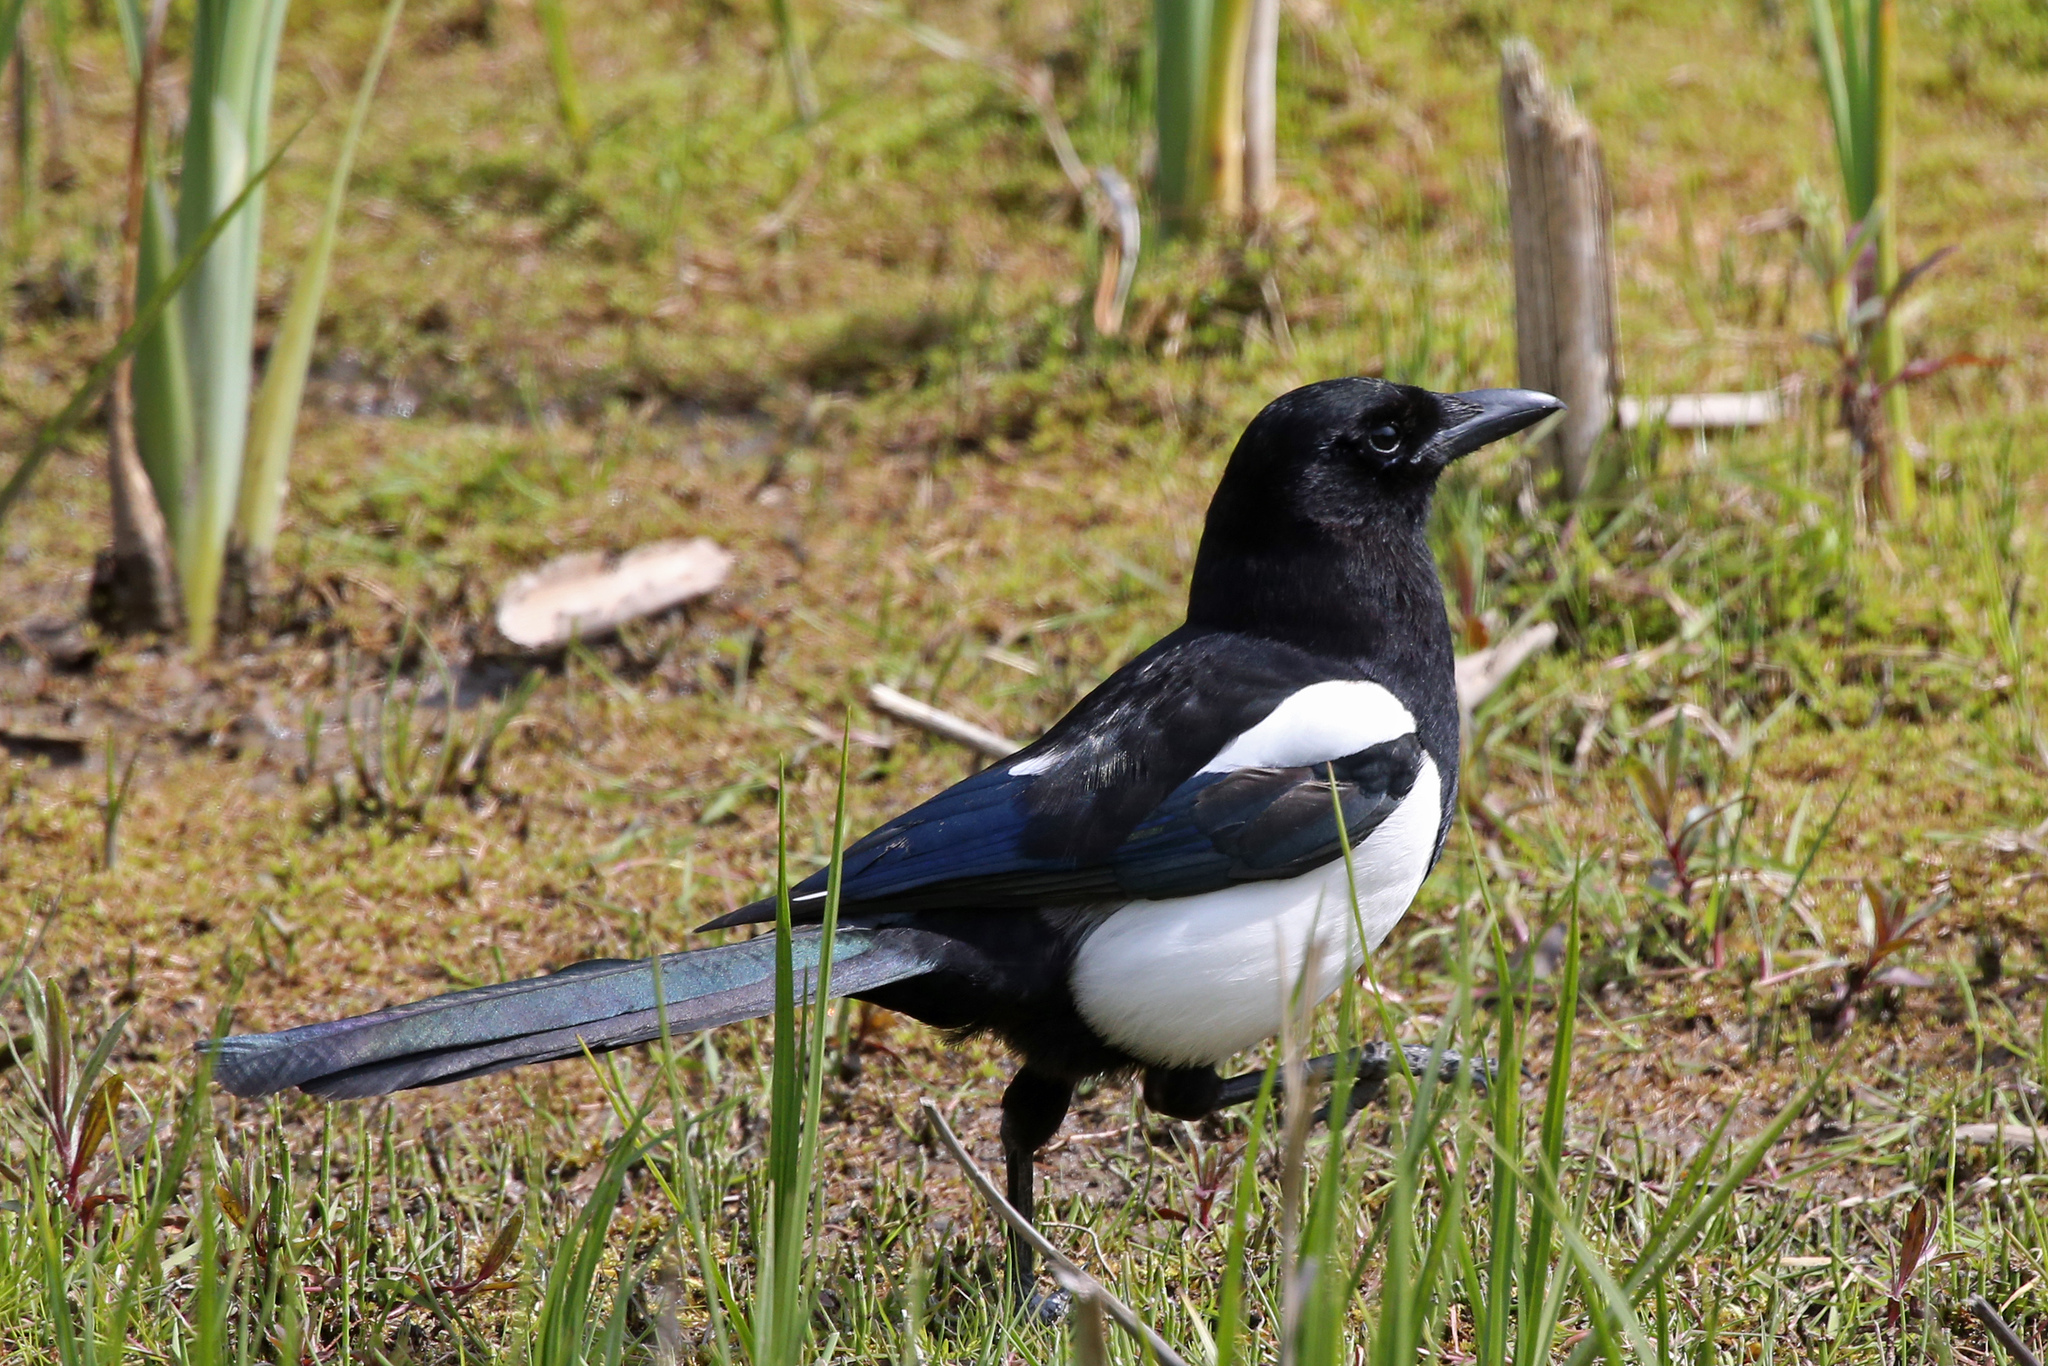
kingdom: Animalia
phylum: Chordata
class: Aves
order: Passeriformes
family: Corvidae
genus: Pica
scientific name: Pica pica
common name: Eurasian magpie
